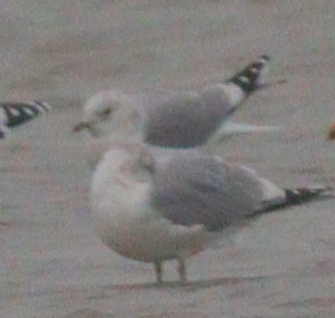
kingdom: Animalia
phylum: Chordata
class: Aves
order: Charadriiformes
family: Laridae
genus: Larus
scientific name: Larus canus
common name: Mew gull
